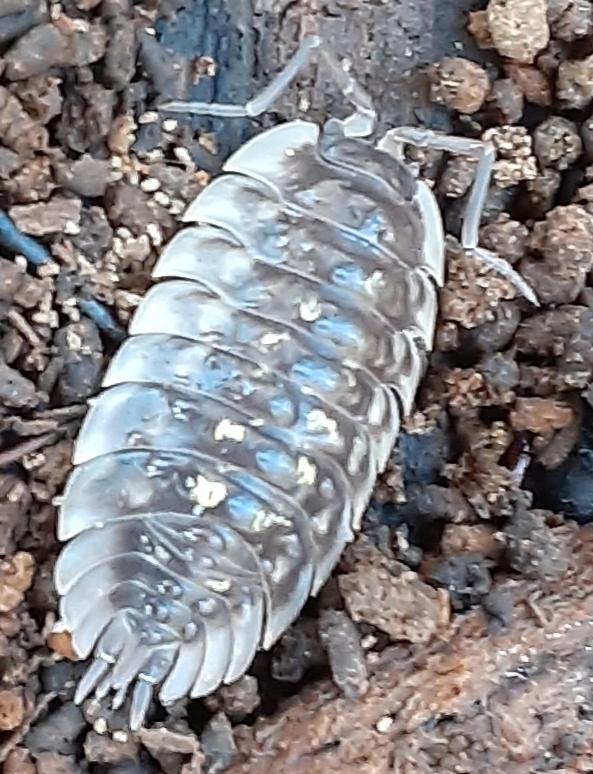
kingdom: Animalia
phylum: Arthropoda
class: Malacostraca
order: Isopoda
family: Oniscidae
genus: Oniscus
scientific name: Oniscus asellus
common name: Common shiny woodlouse
